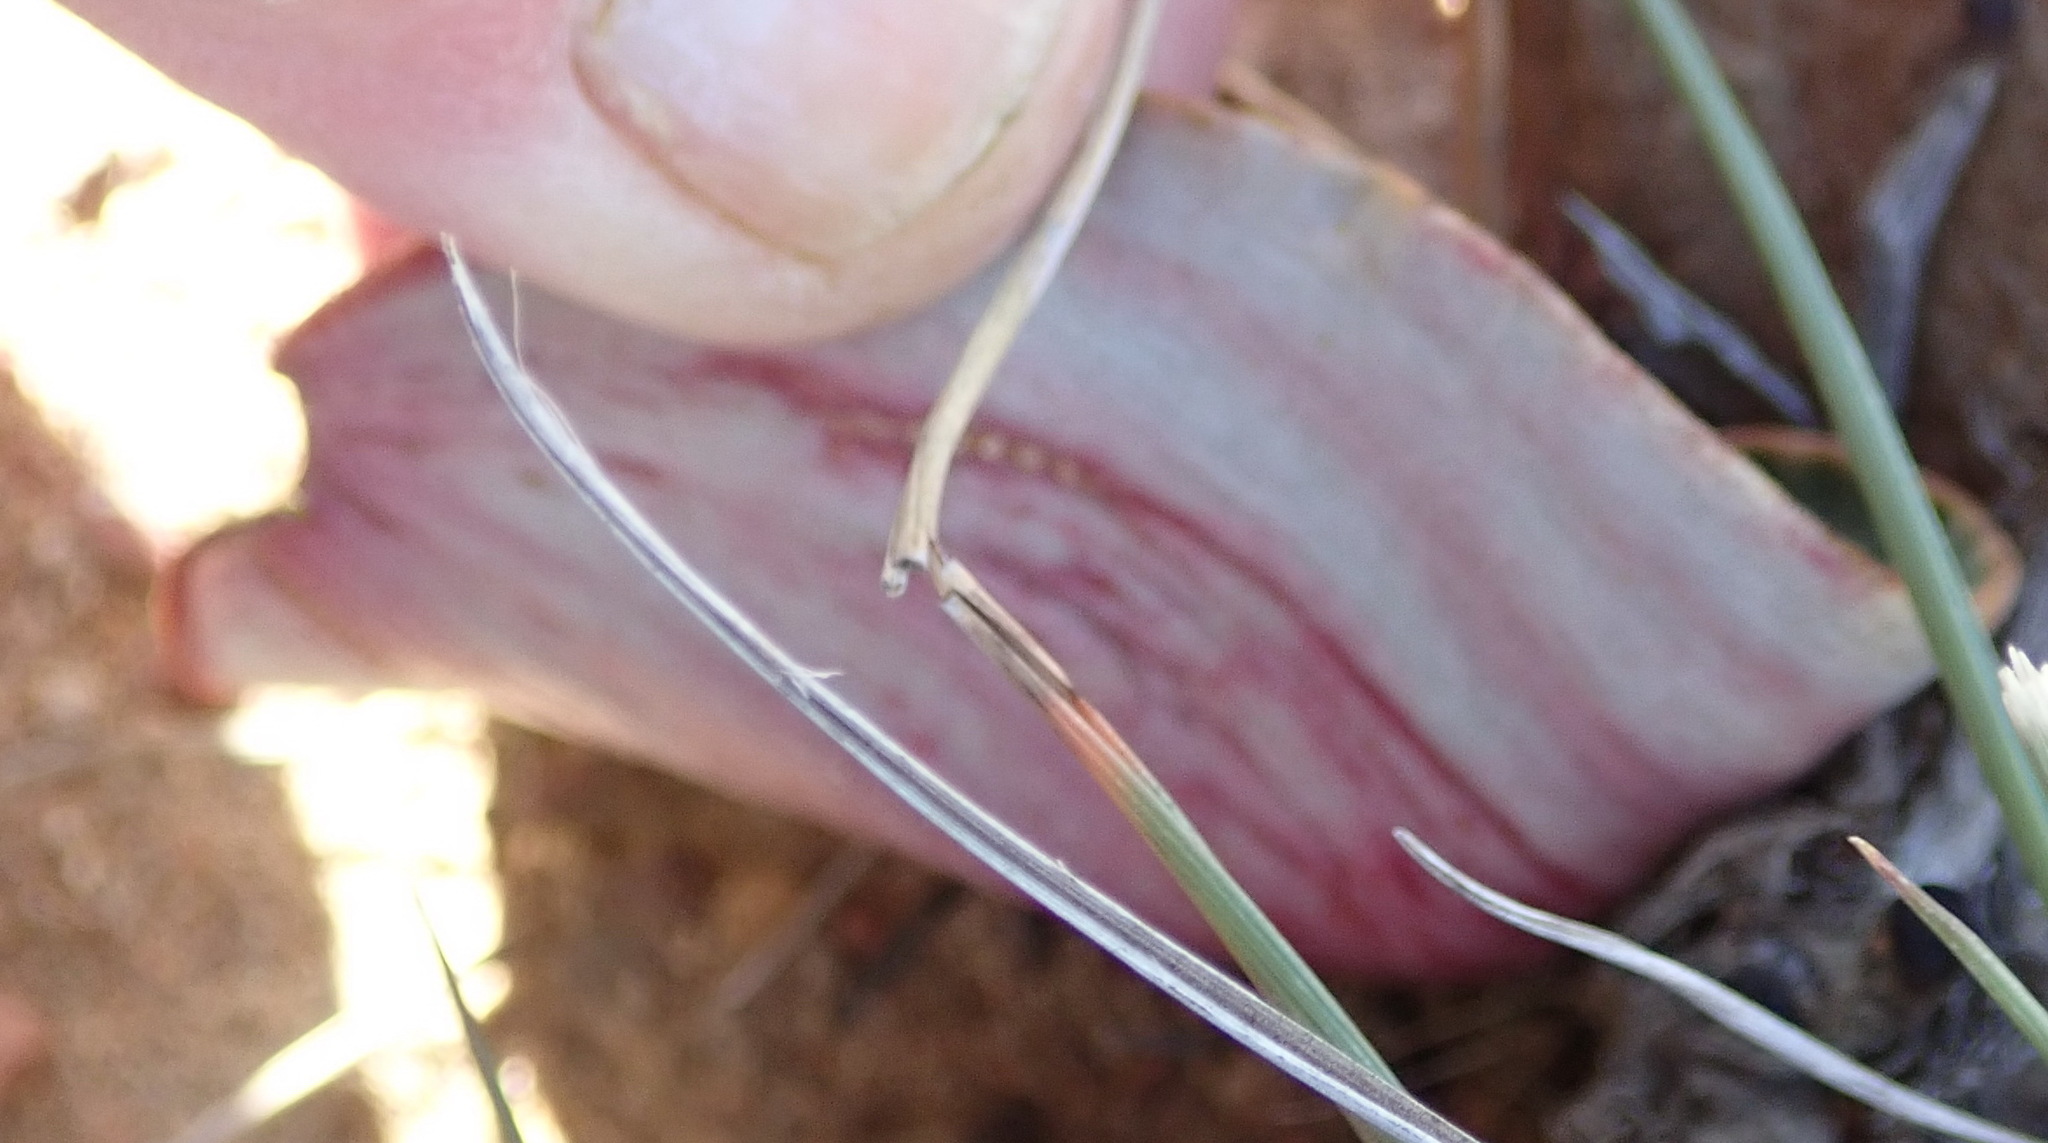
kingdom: Plantae
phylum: Tracheophyta
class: Liliopsida
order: Asparagales
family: Asparagaceae
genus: Eriospermum
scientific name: Eriospermum capense
